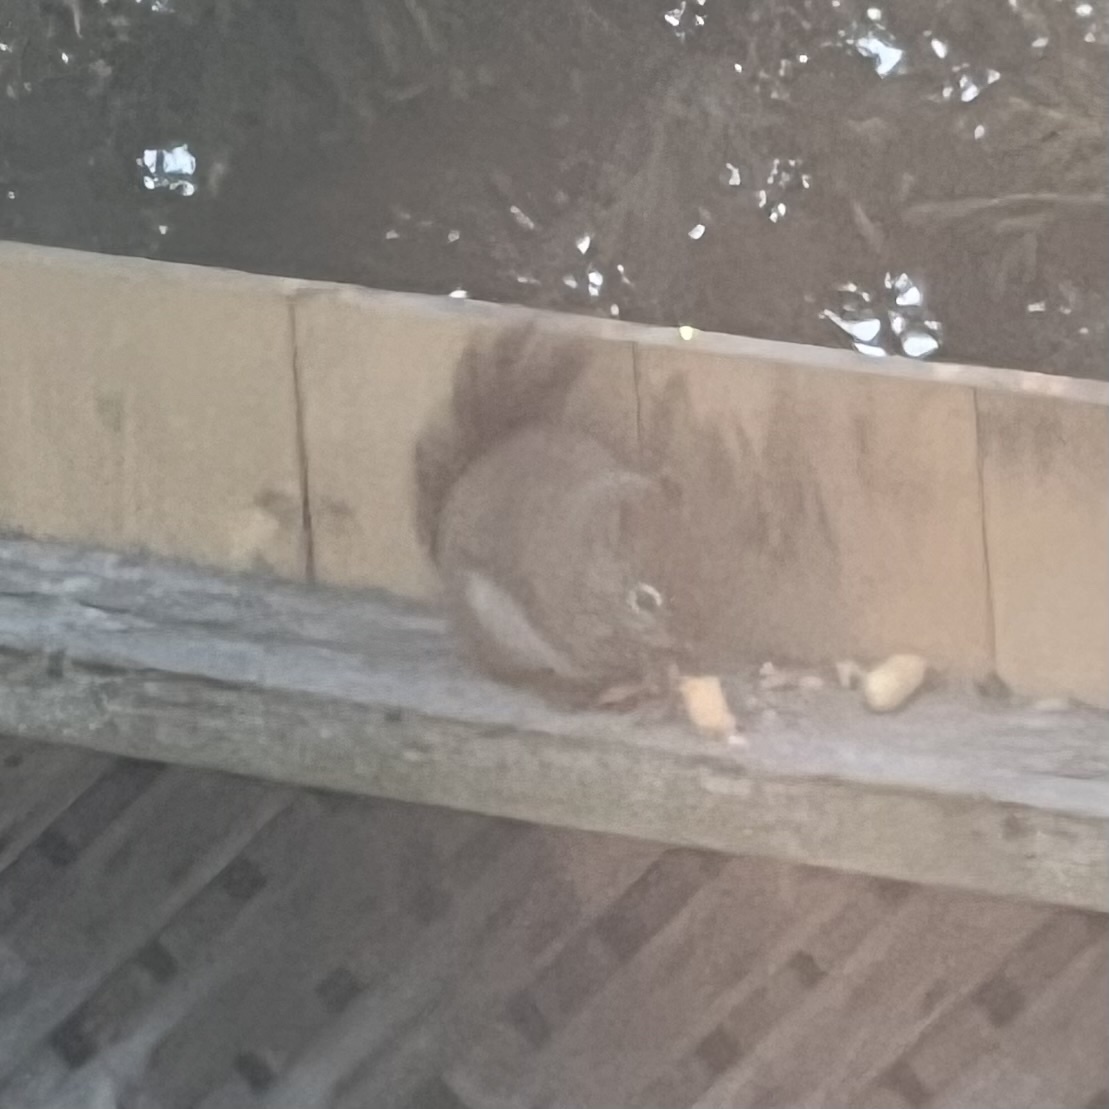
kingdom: Animalia
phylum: Chordata
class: Mammalia
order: Rodentia
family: Sciuridae
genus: Tamiasciurus
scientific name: Tamiasciurus hudsonicus
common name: Red squirrel
